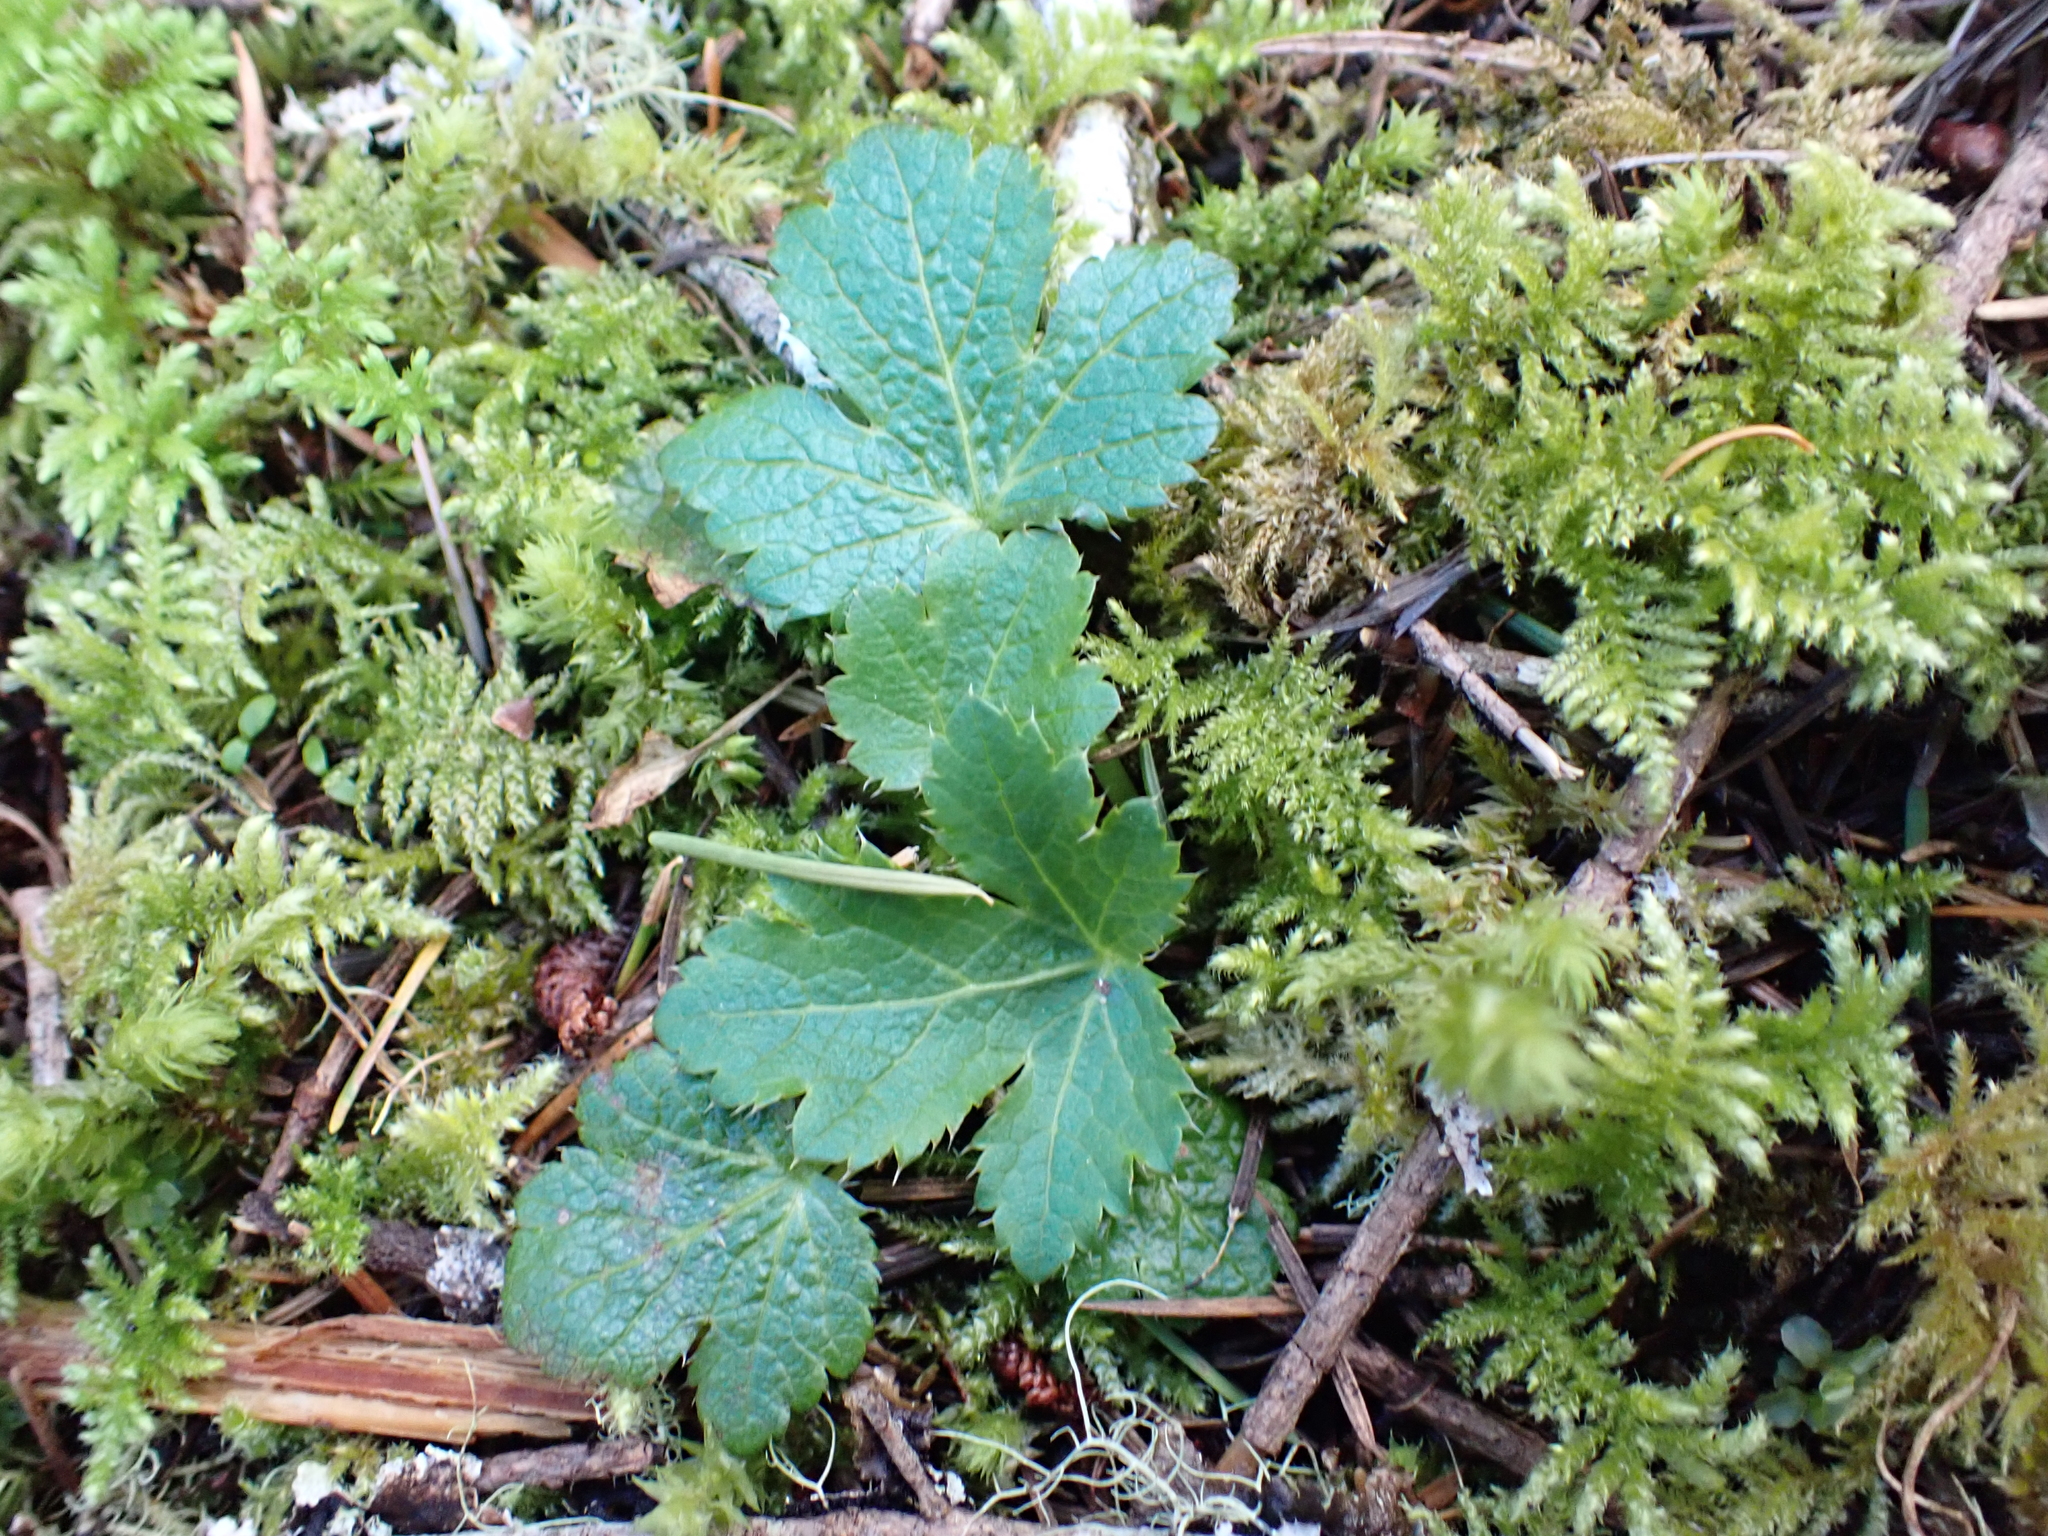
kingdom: Plantae
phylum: Tracheophyta
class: Magnoliopsida
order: Apiales
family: Apiaceae
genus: Sanicula
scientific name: Sanicula crassicaulis
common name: Western snakeroot
